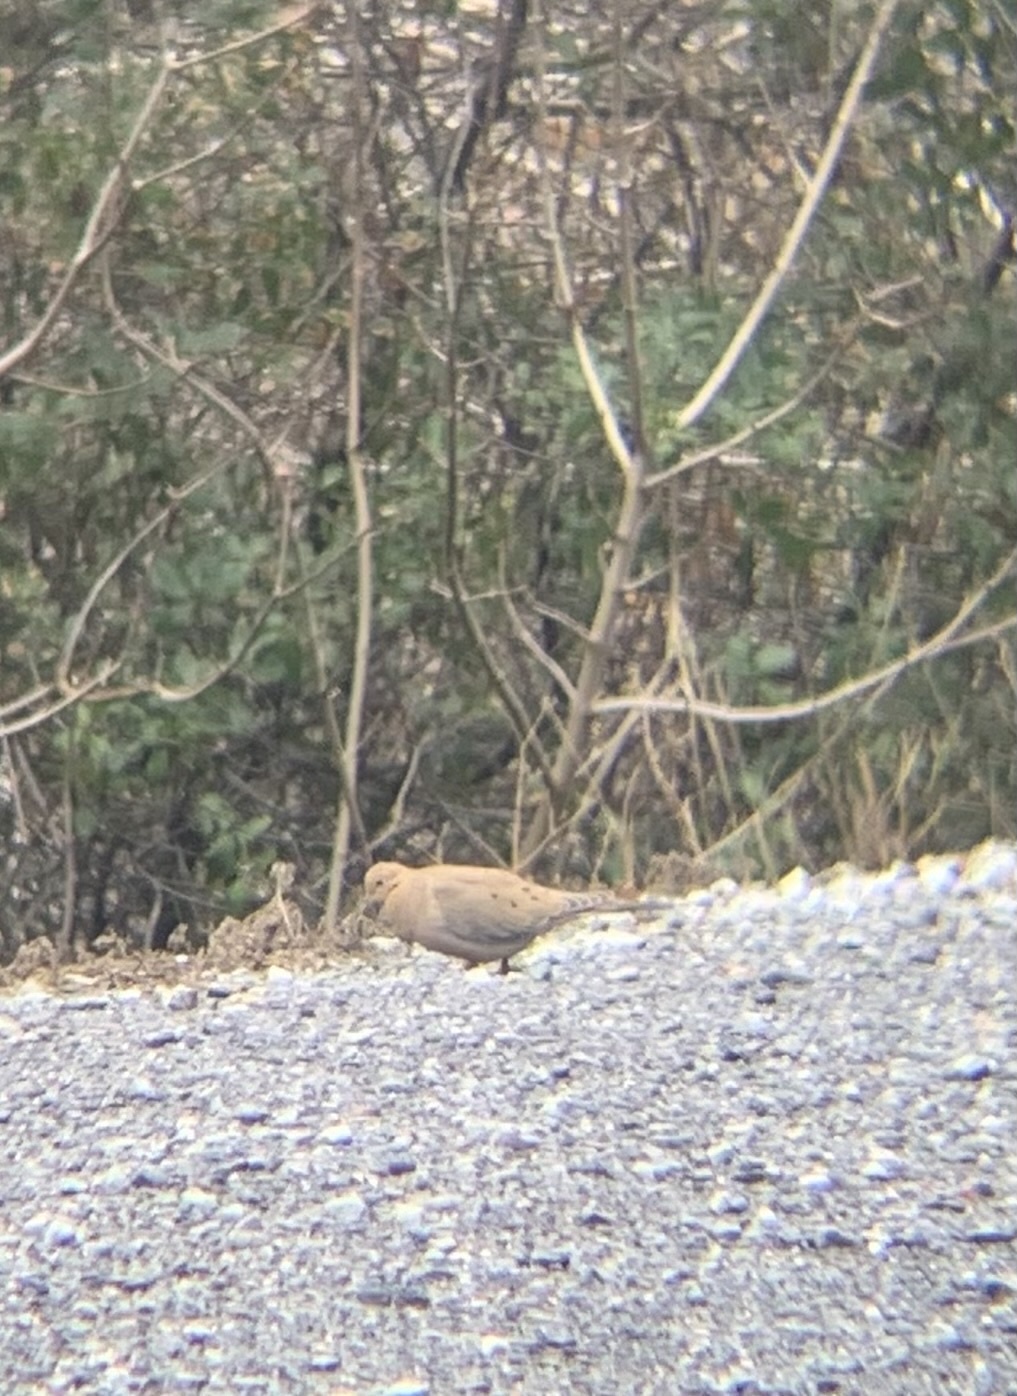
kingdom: Animalia
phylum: Chordata
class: Aves
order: Columbiformes
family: Columbidae
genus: Zenaida
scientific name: Zenaida macroura
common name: Mourning dove
